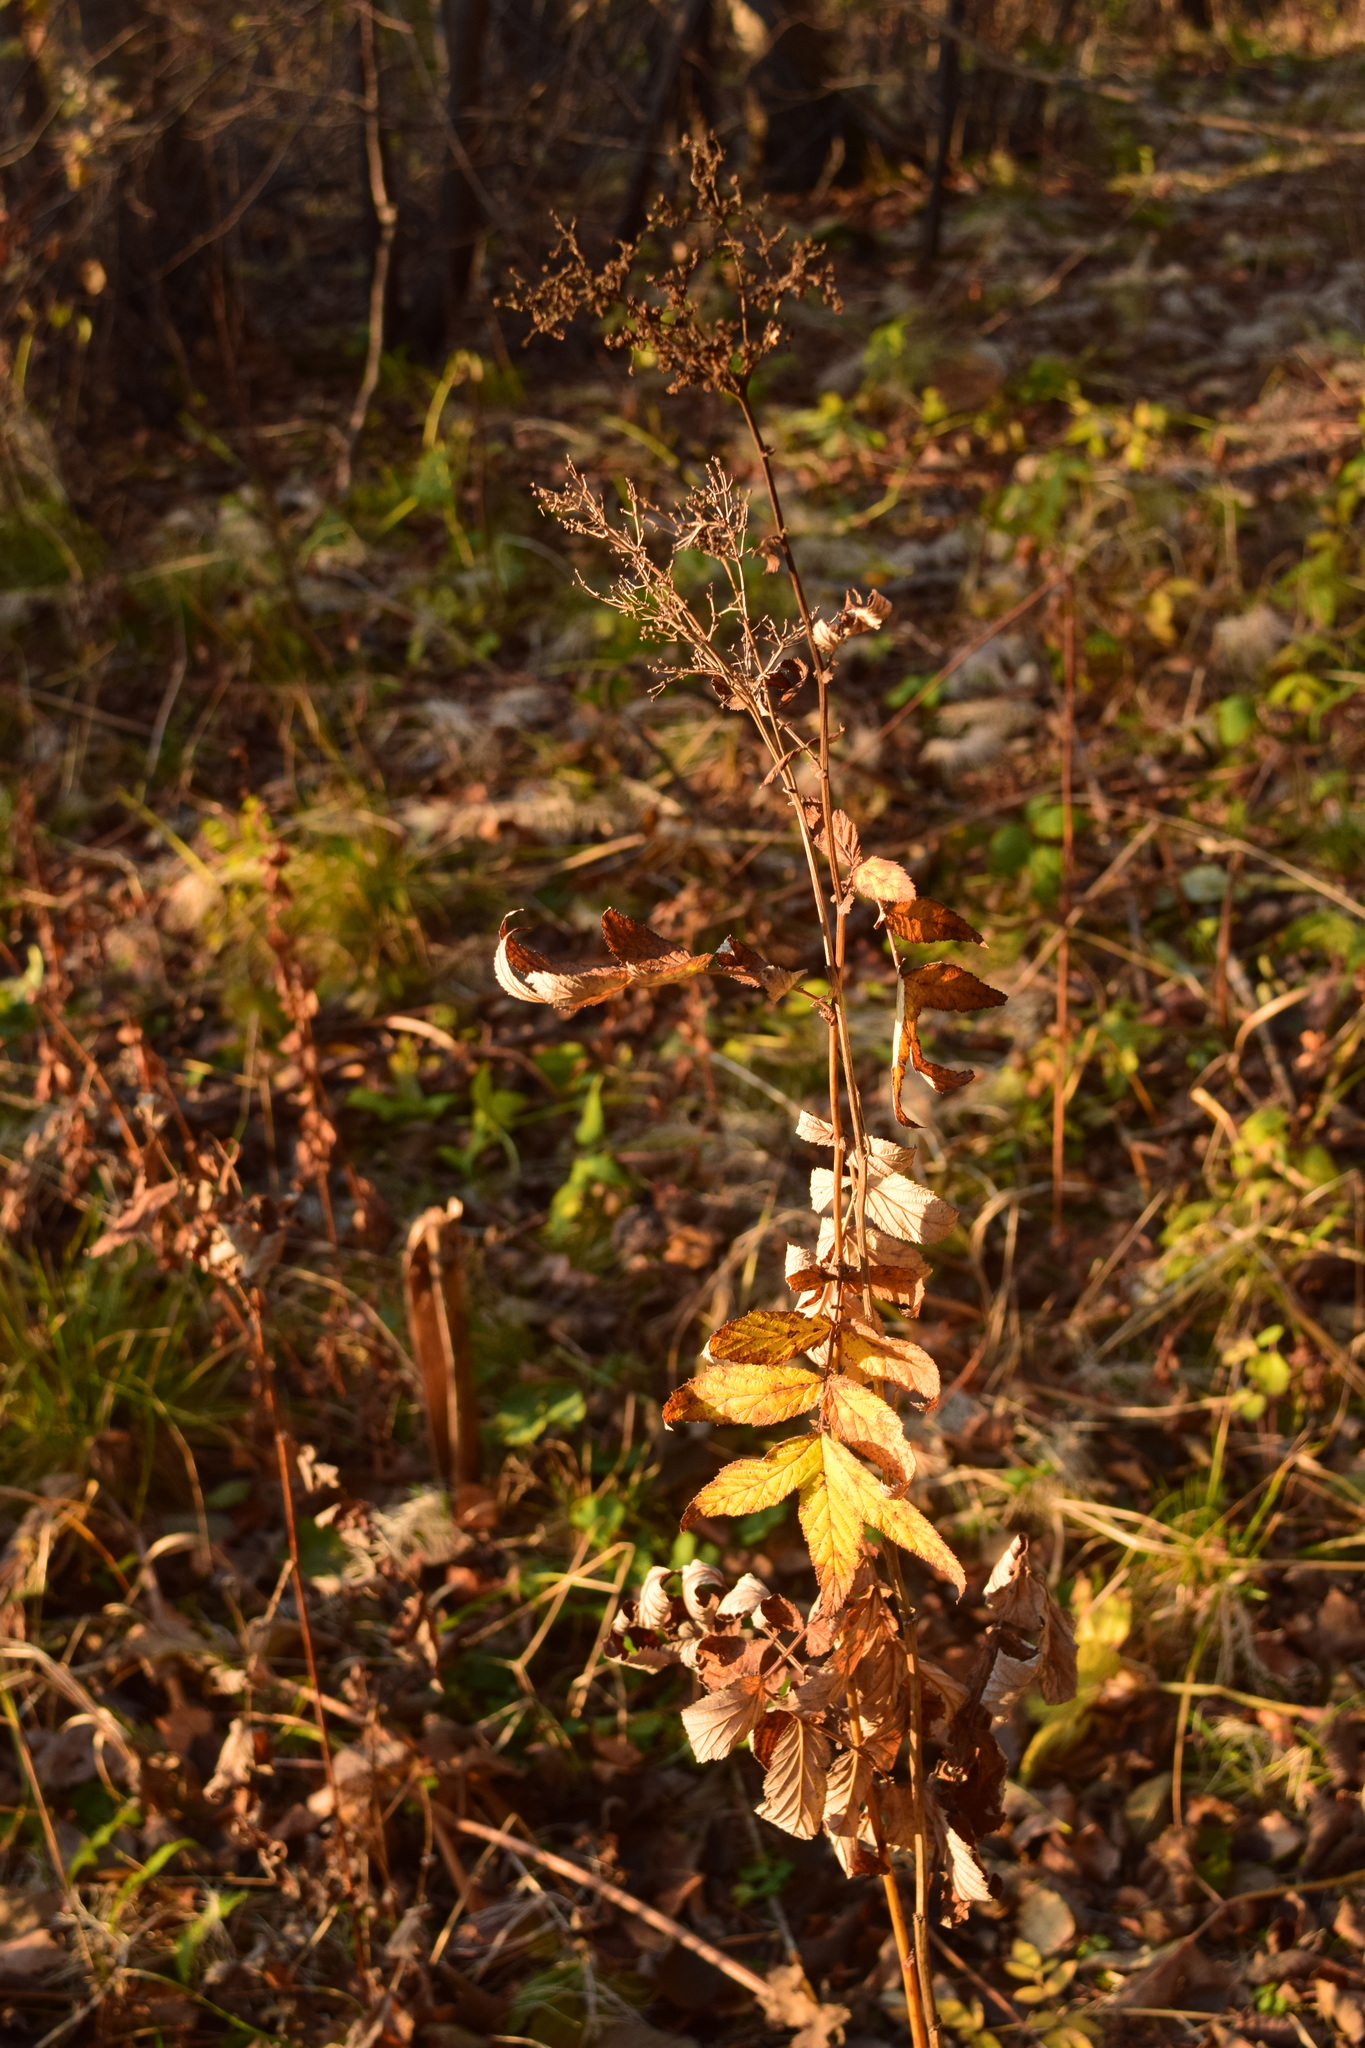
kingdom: Plantae
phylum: Tracheophyta
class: Magnoliopsida
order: Rosales
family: Rosaceae
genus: Filipendula
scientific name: Filipendula ulmaria
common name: Meadowsweet
